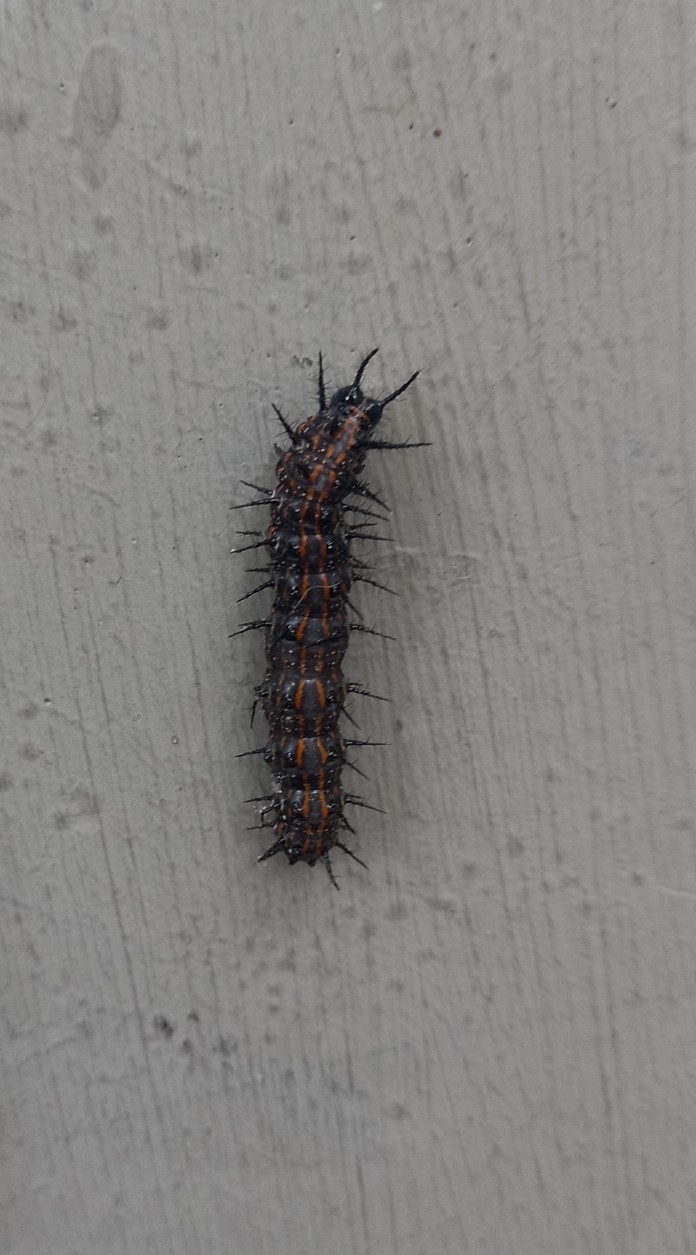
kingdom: Animalia
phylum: Arthropoda
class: Insecta
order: Lepidoptera
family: Nymphalidae
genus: Dione
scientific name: Dione vanillae
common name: Gulf fritillary
